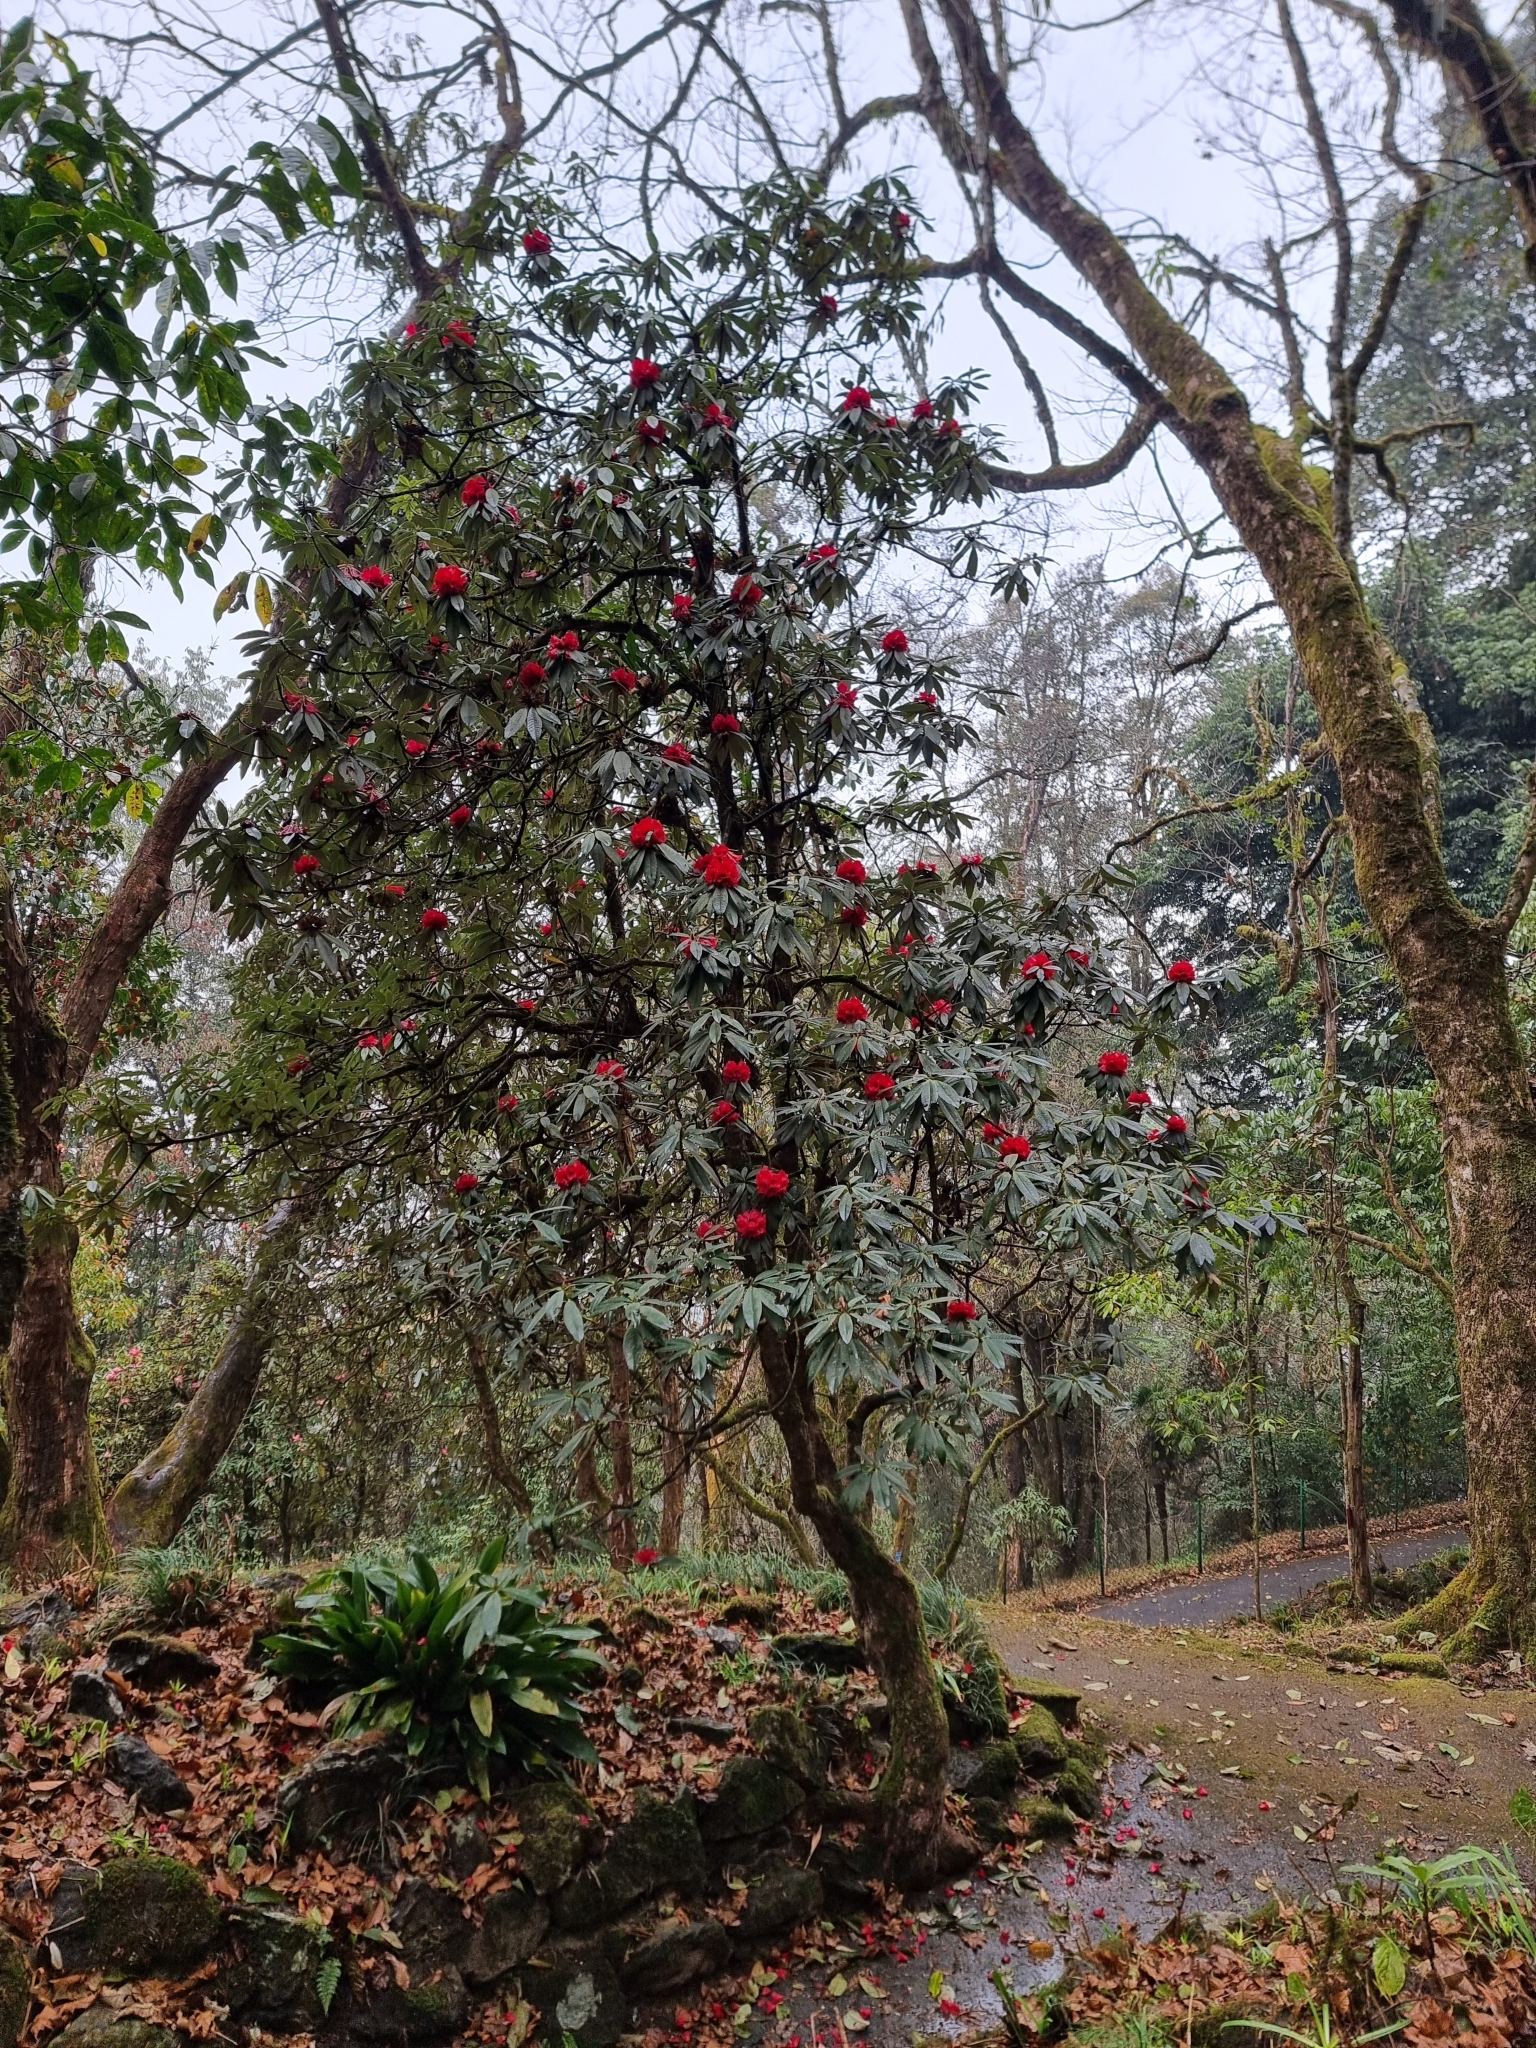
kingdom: Plantae
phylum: Tracheophyta
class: Magnoliopsida
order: Ericales
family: Ericaceae
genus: Rhododendron
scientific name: Rhododendron arboreum
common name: Tree rhododendron
